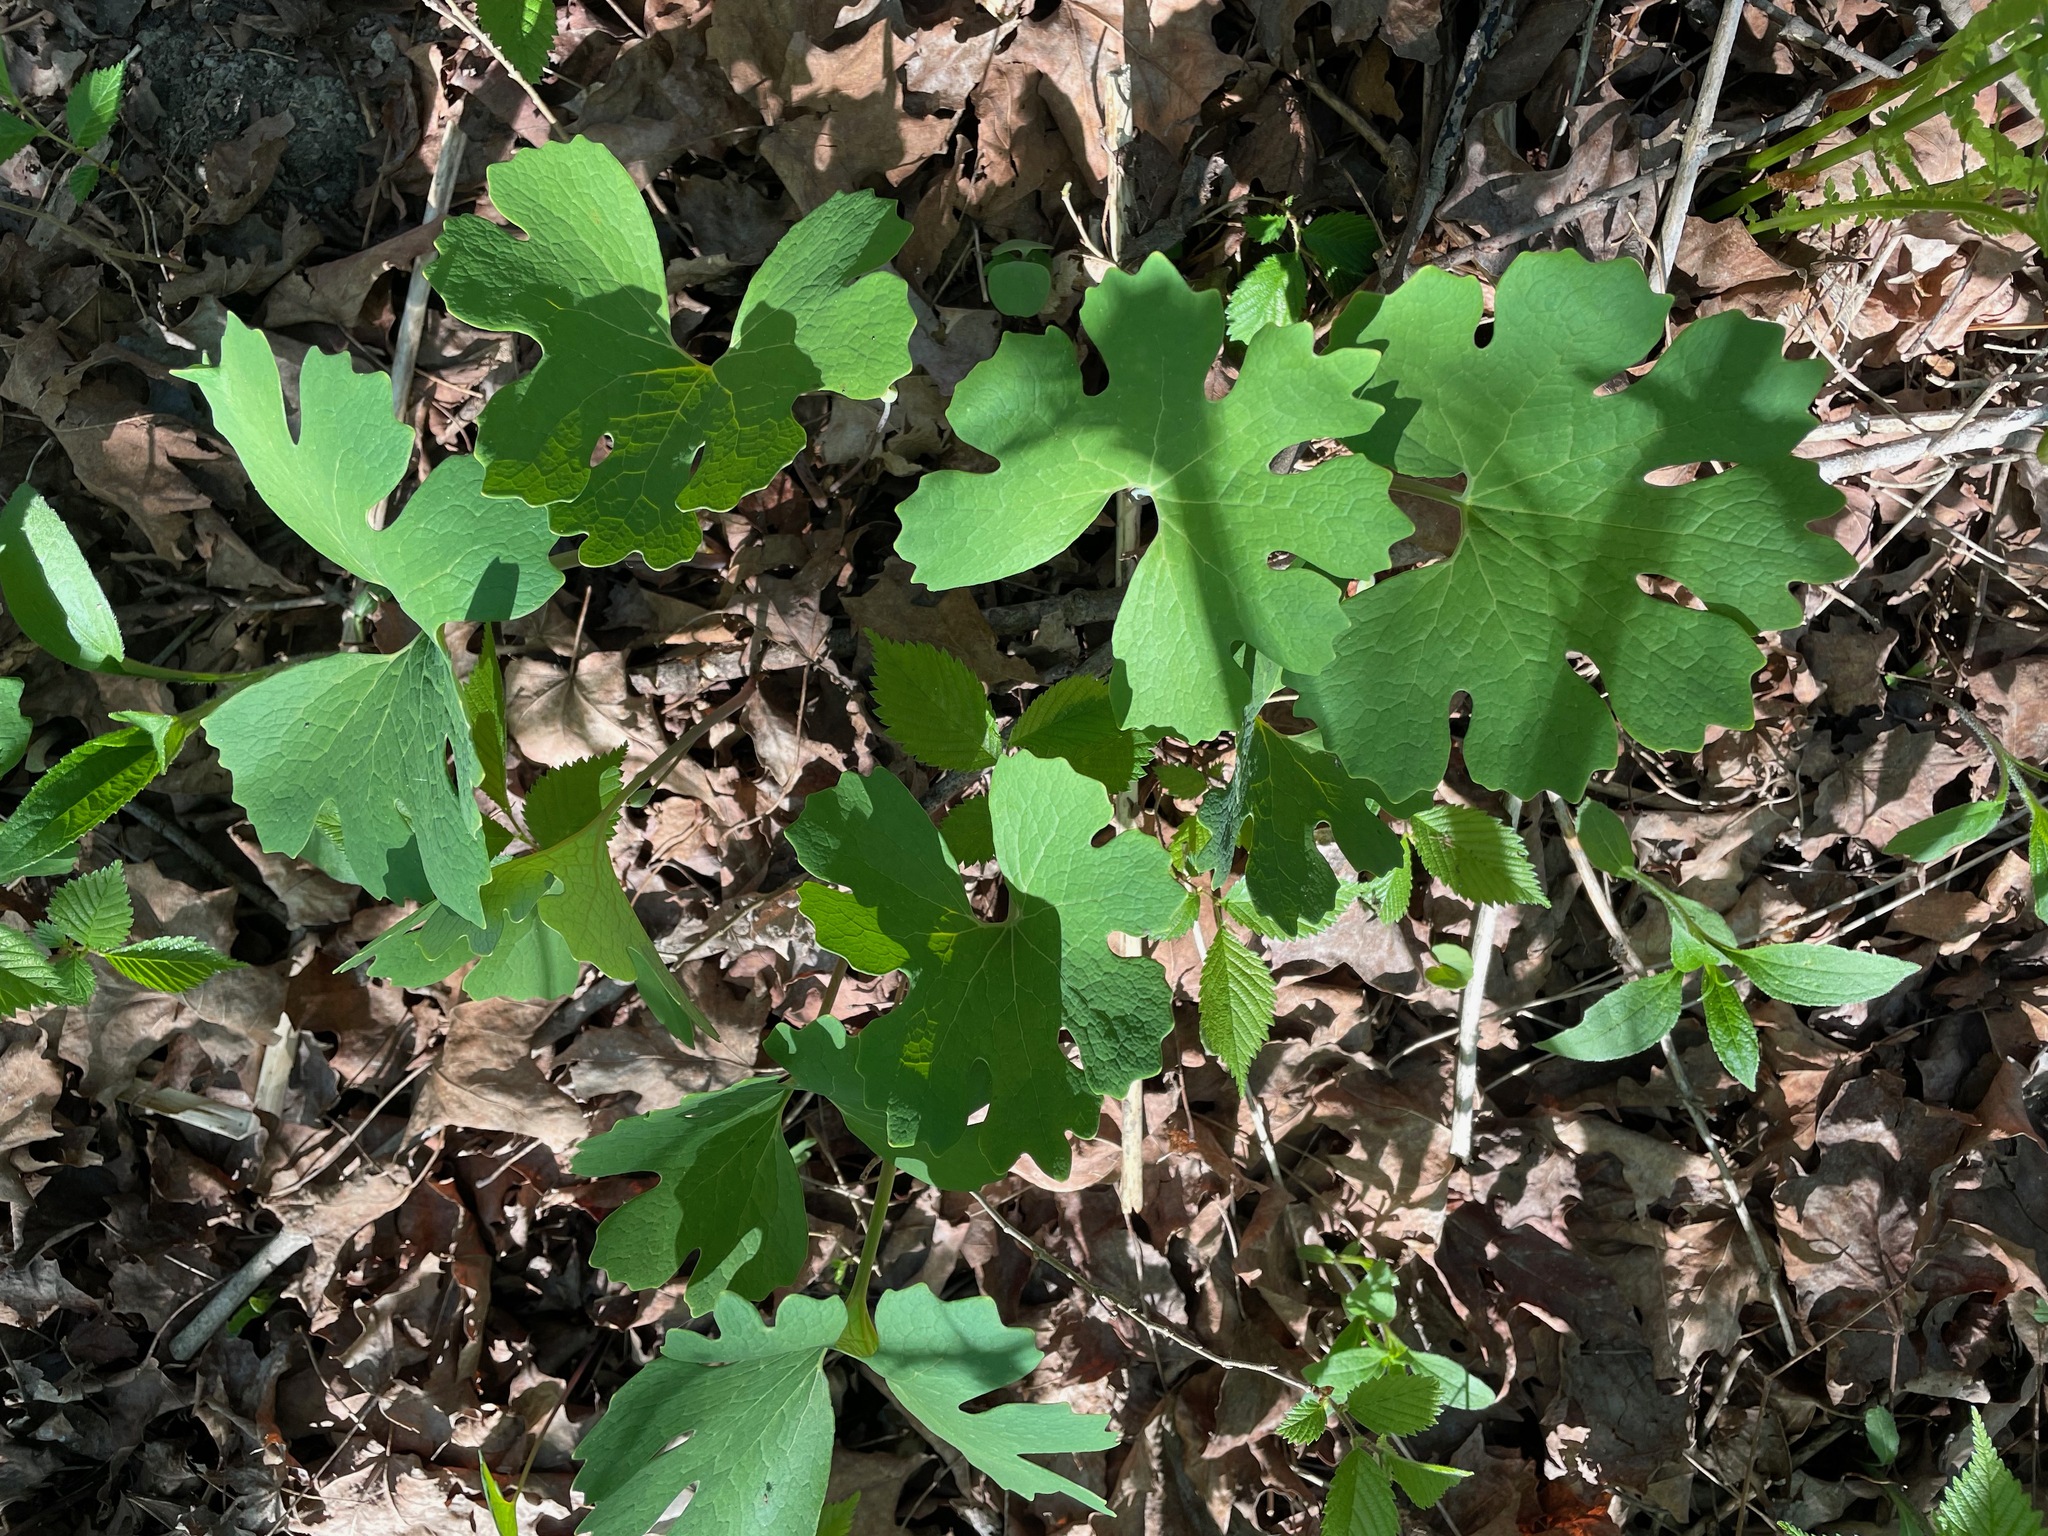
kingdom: Plantae
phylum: Tracheophyta
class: Magnoliopsida
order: Ranunculales
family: Papaveraceae
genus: Sanguinaria
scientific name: Sanguinaria canadensis
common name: Bloodroot
